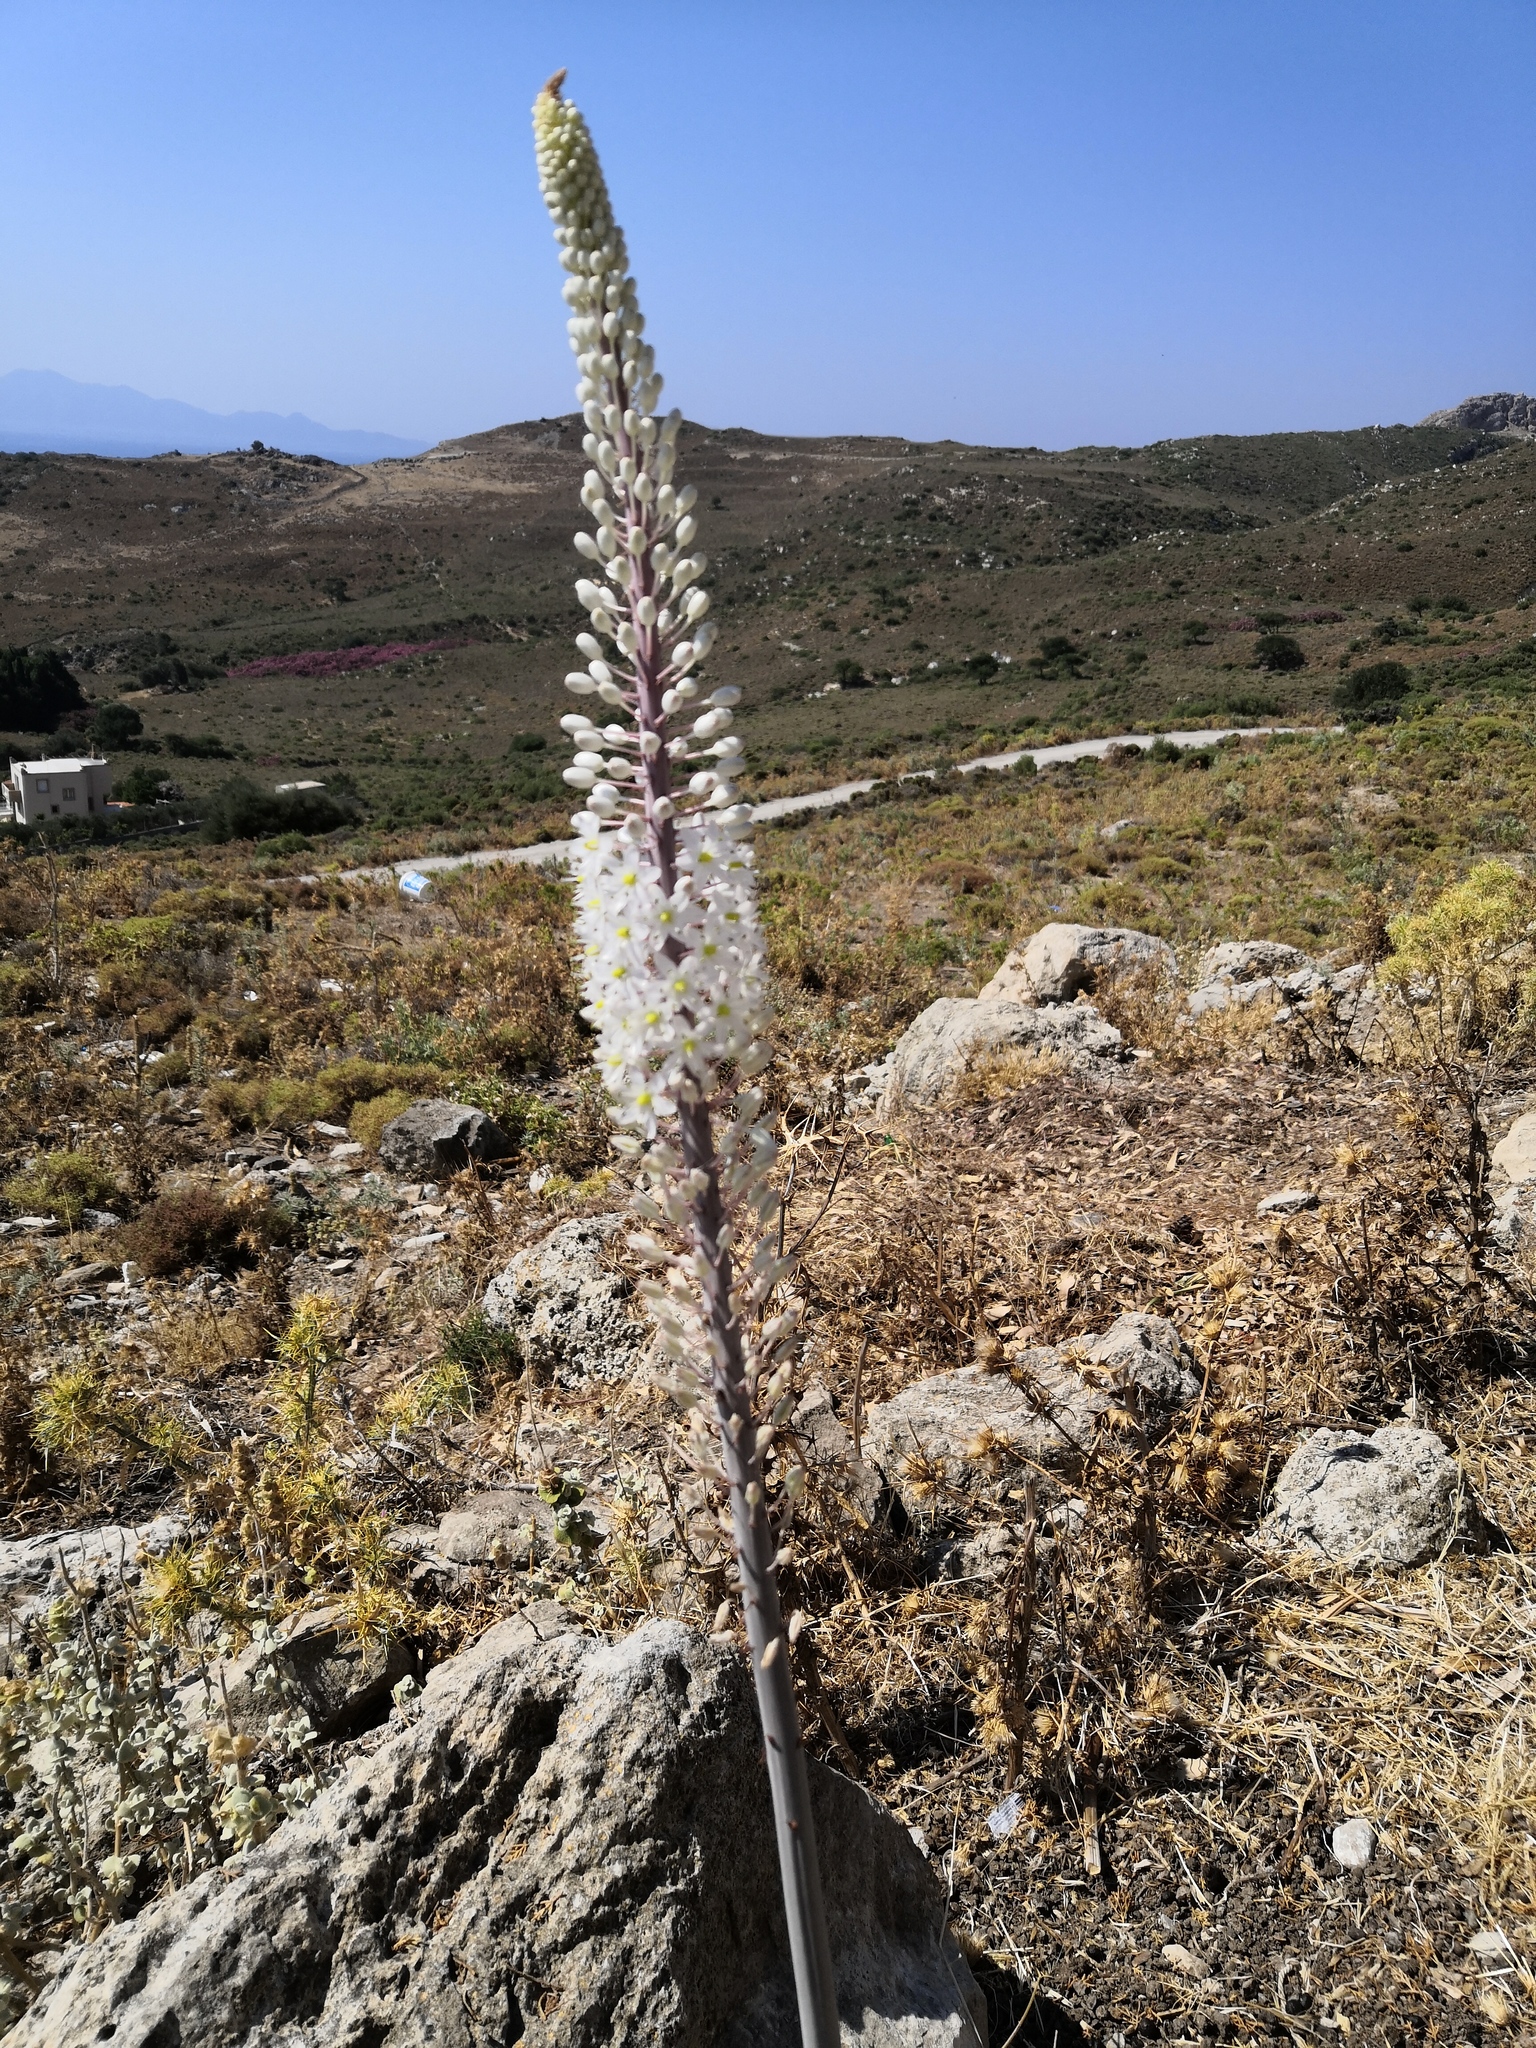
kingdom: Plantae
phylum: Tracheophyta
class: Liliopsida
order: Asparagales
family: Asparagaceae
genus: Drimia
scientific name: Drimia aphylla
